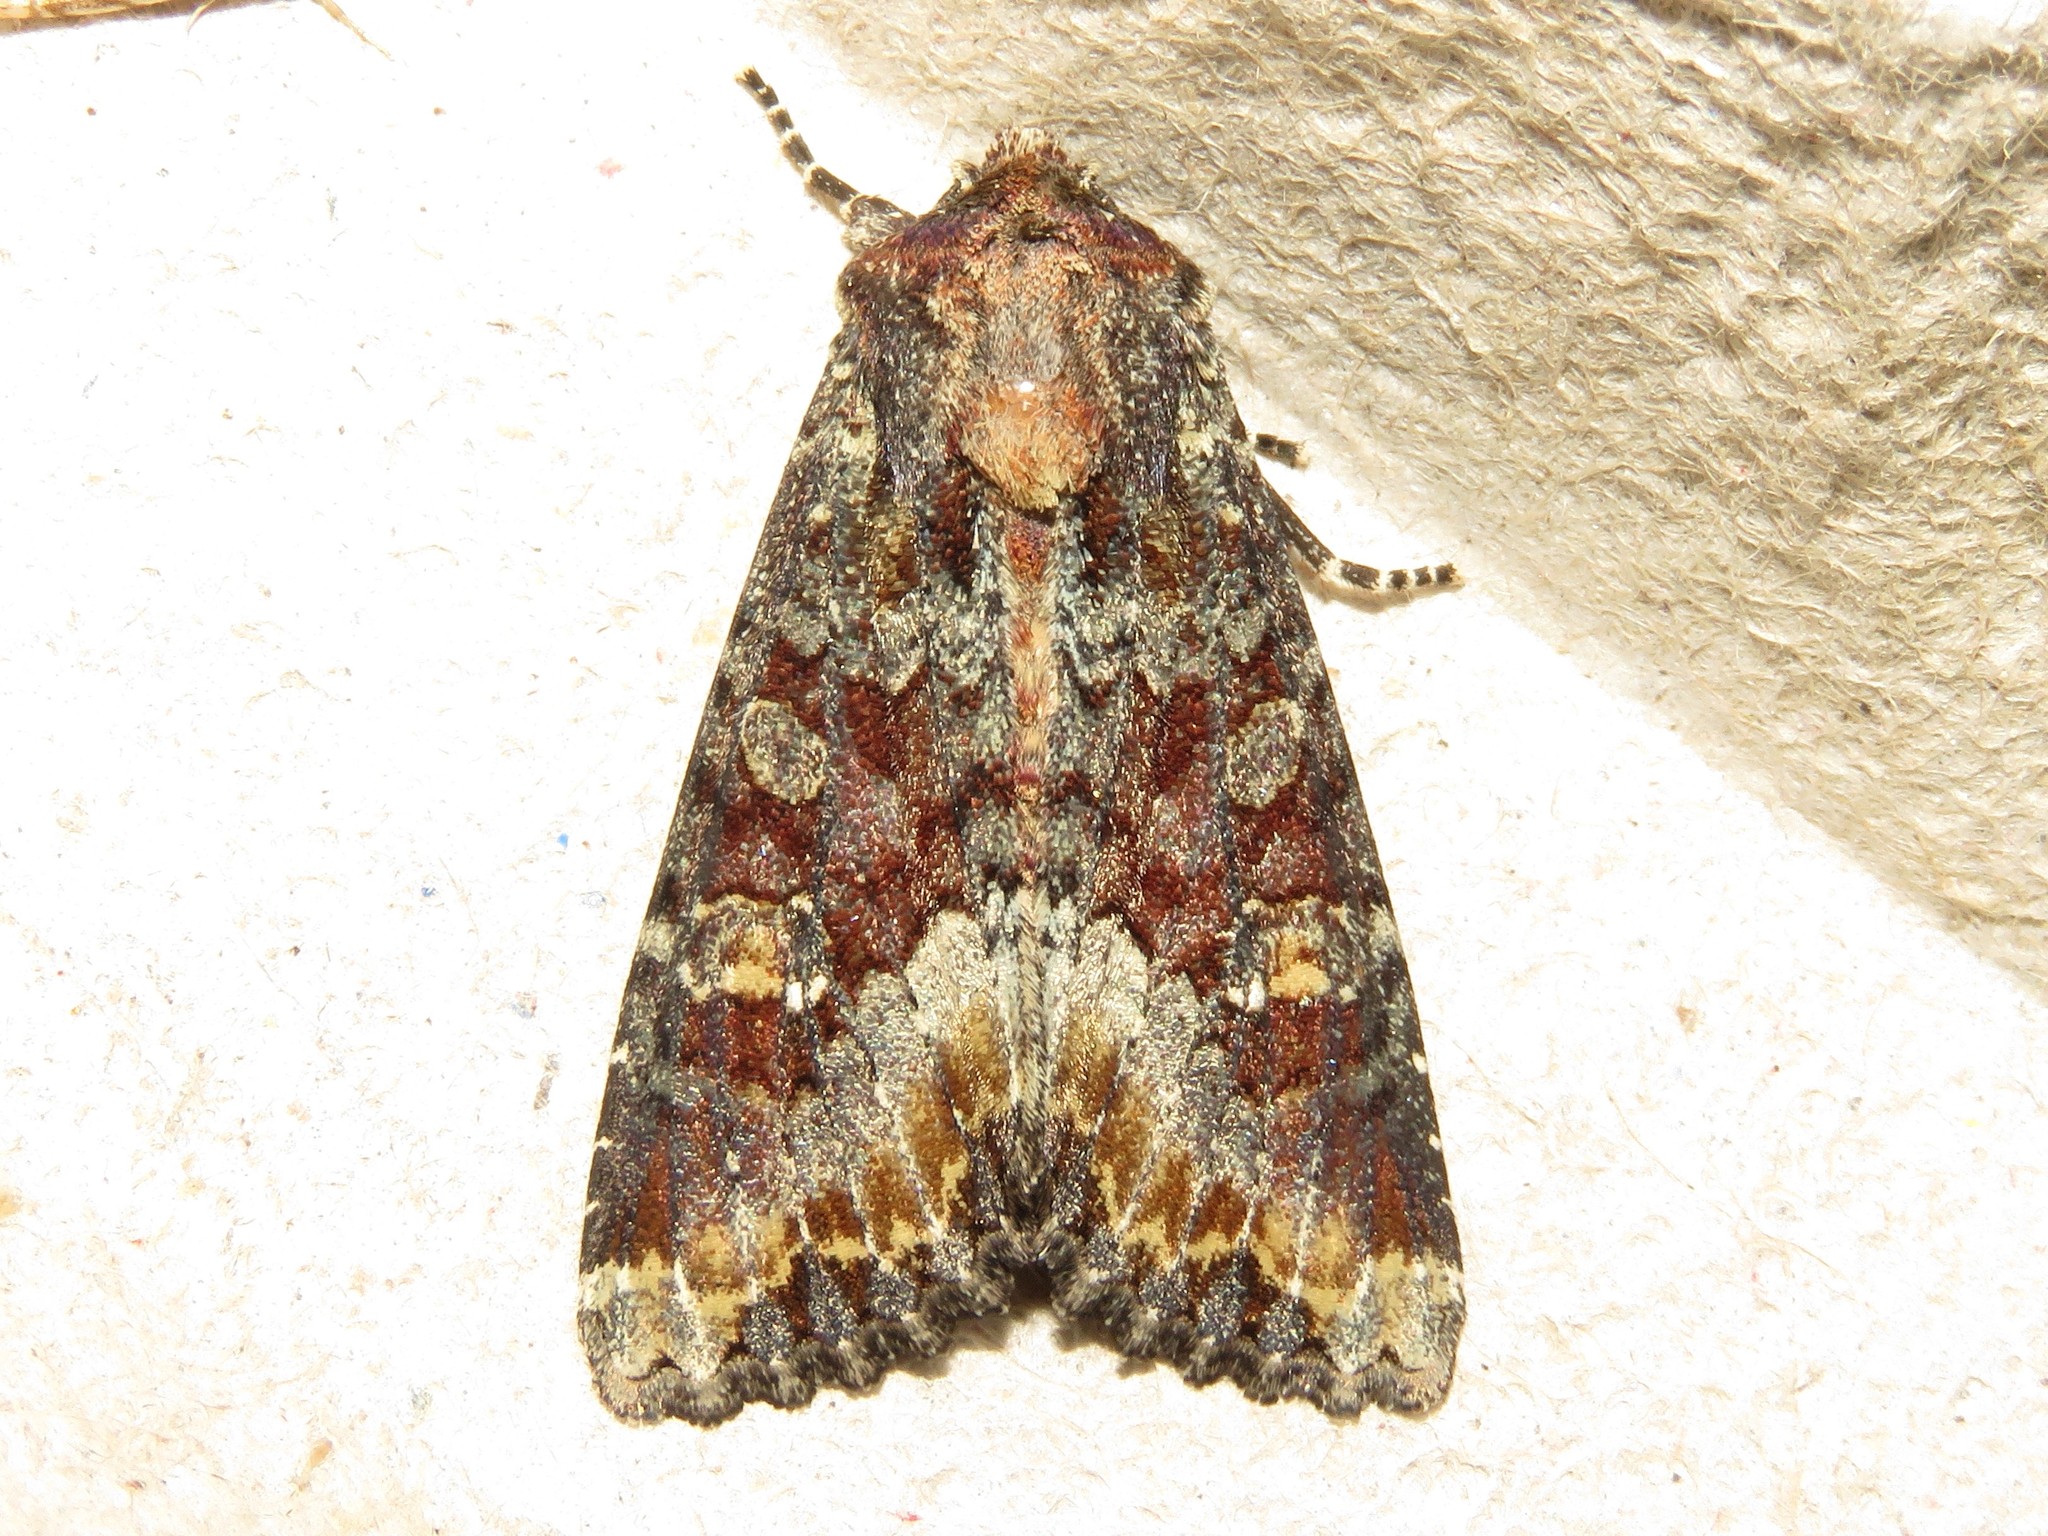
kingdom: Animalia
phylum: Arthropoda
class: Insecta
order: Lepidoptera
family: Noctuidae
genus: Apamea
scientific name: Apamea amputatrix
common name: Yellow-headed cutworm moth
